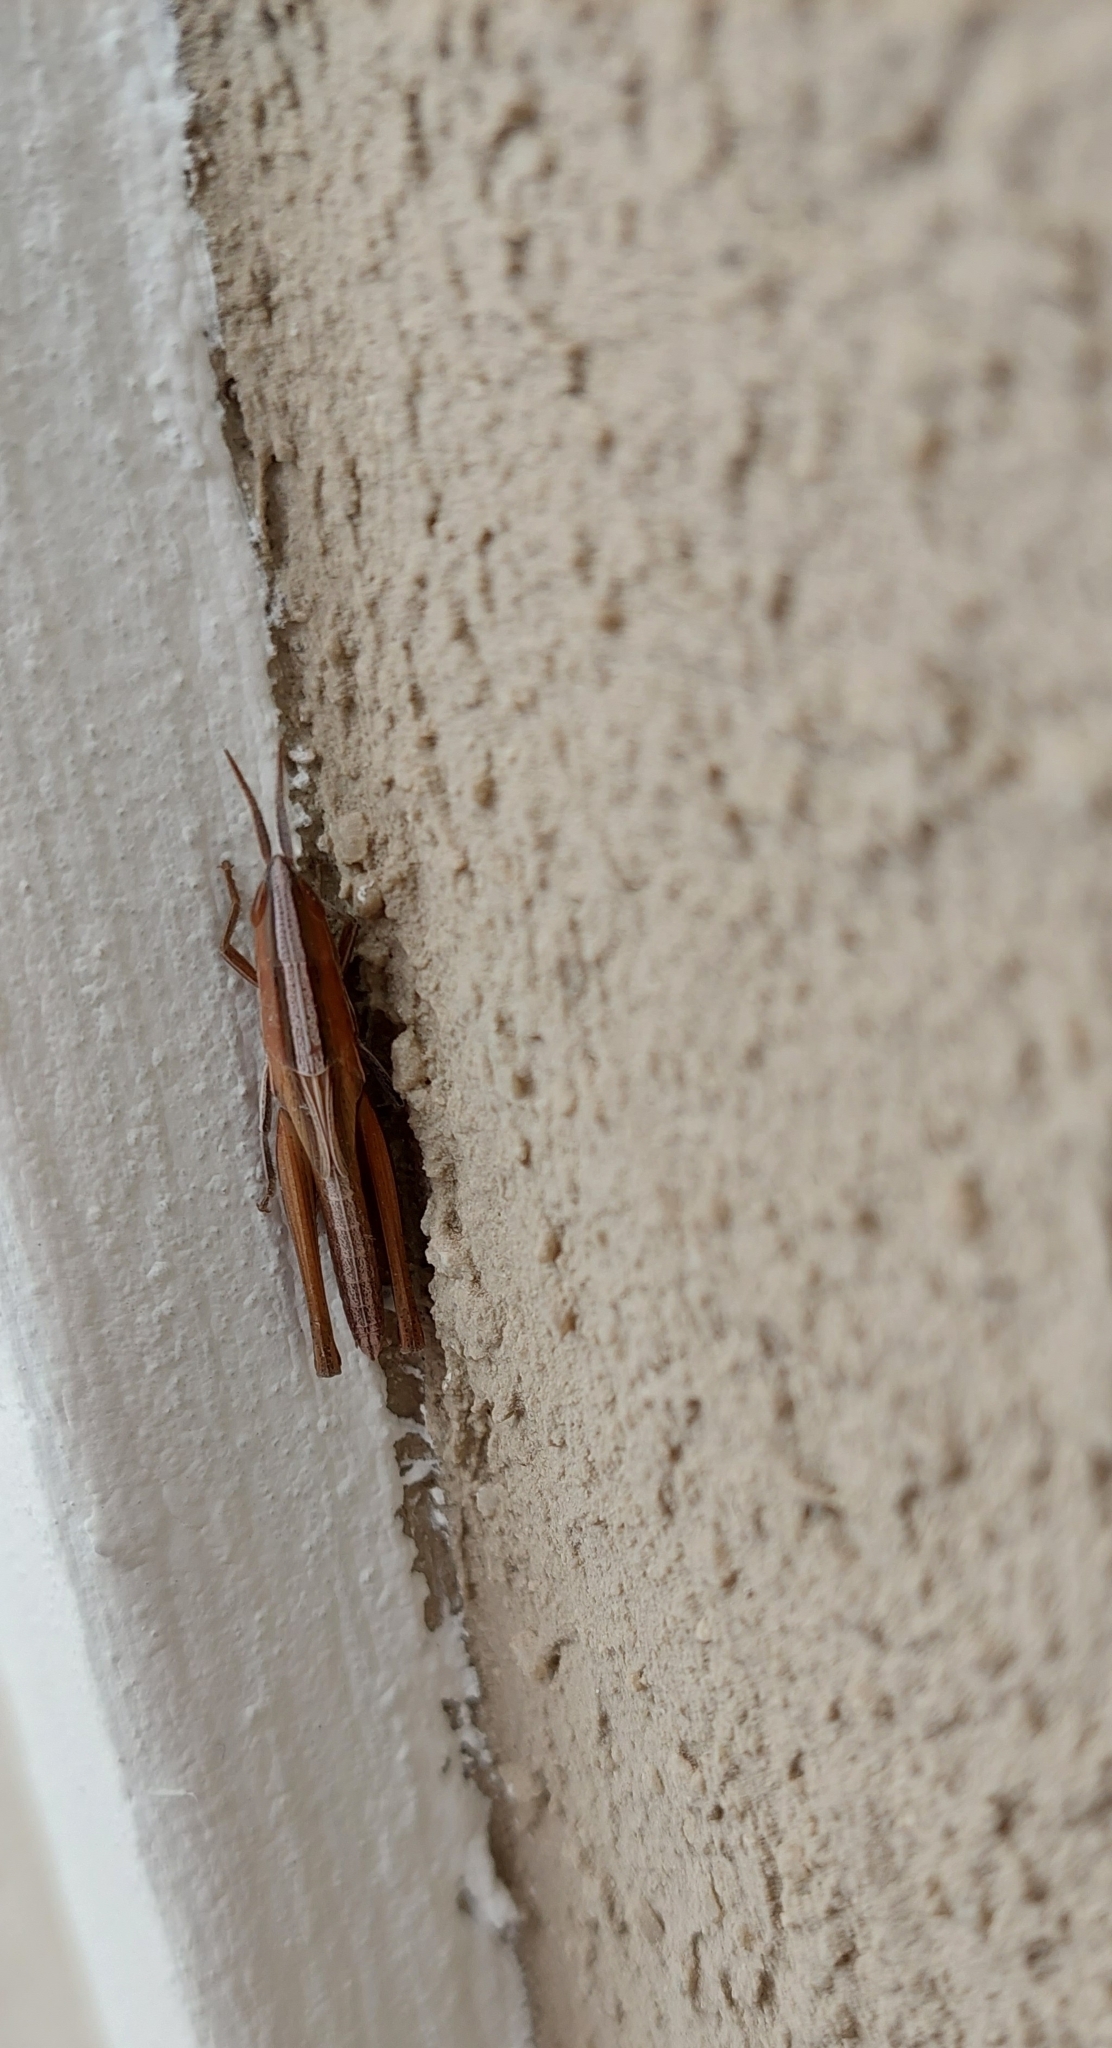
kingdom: Animalia
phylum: Arthropoda
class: Insecta
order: Orthoptera
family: Acrididae
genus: Sinipta
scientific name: Sinipta dalmani
